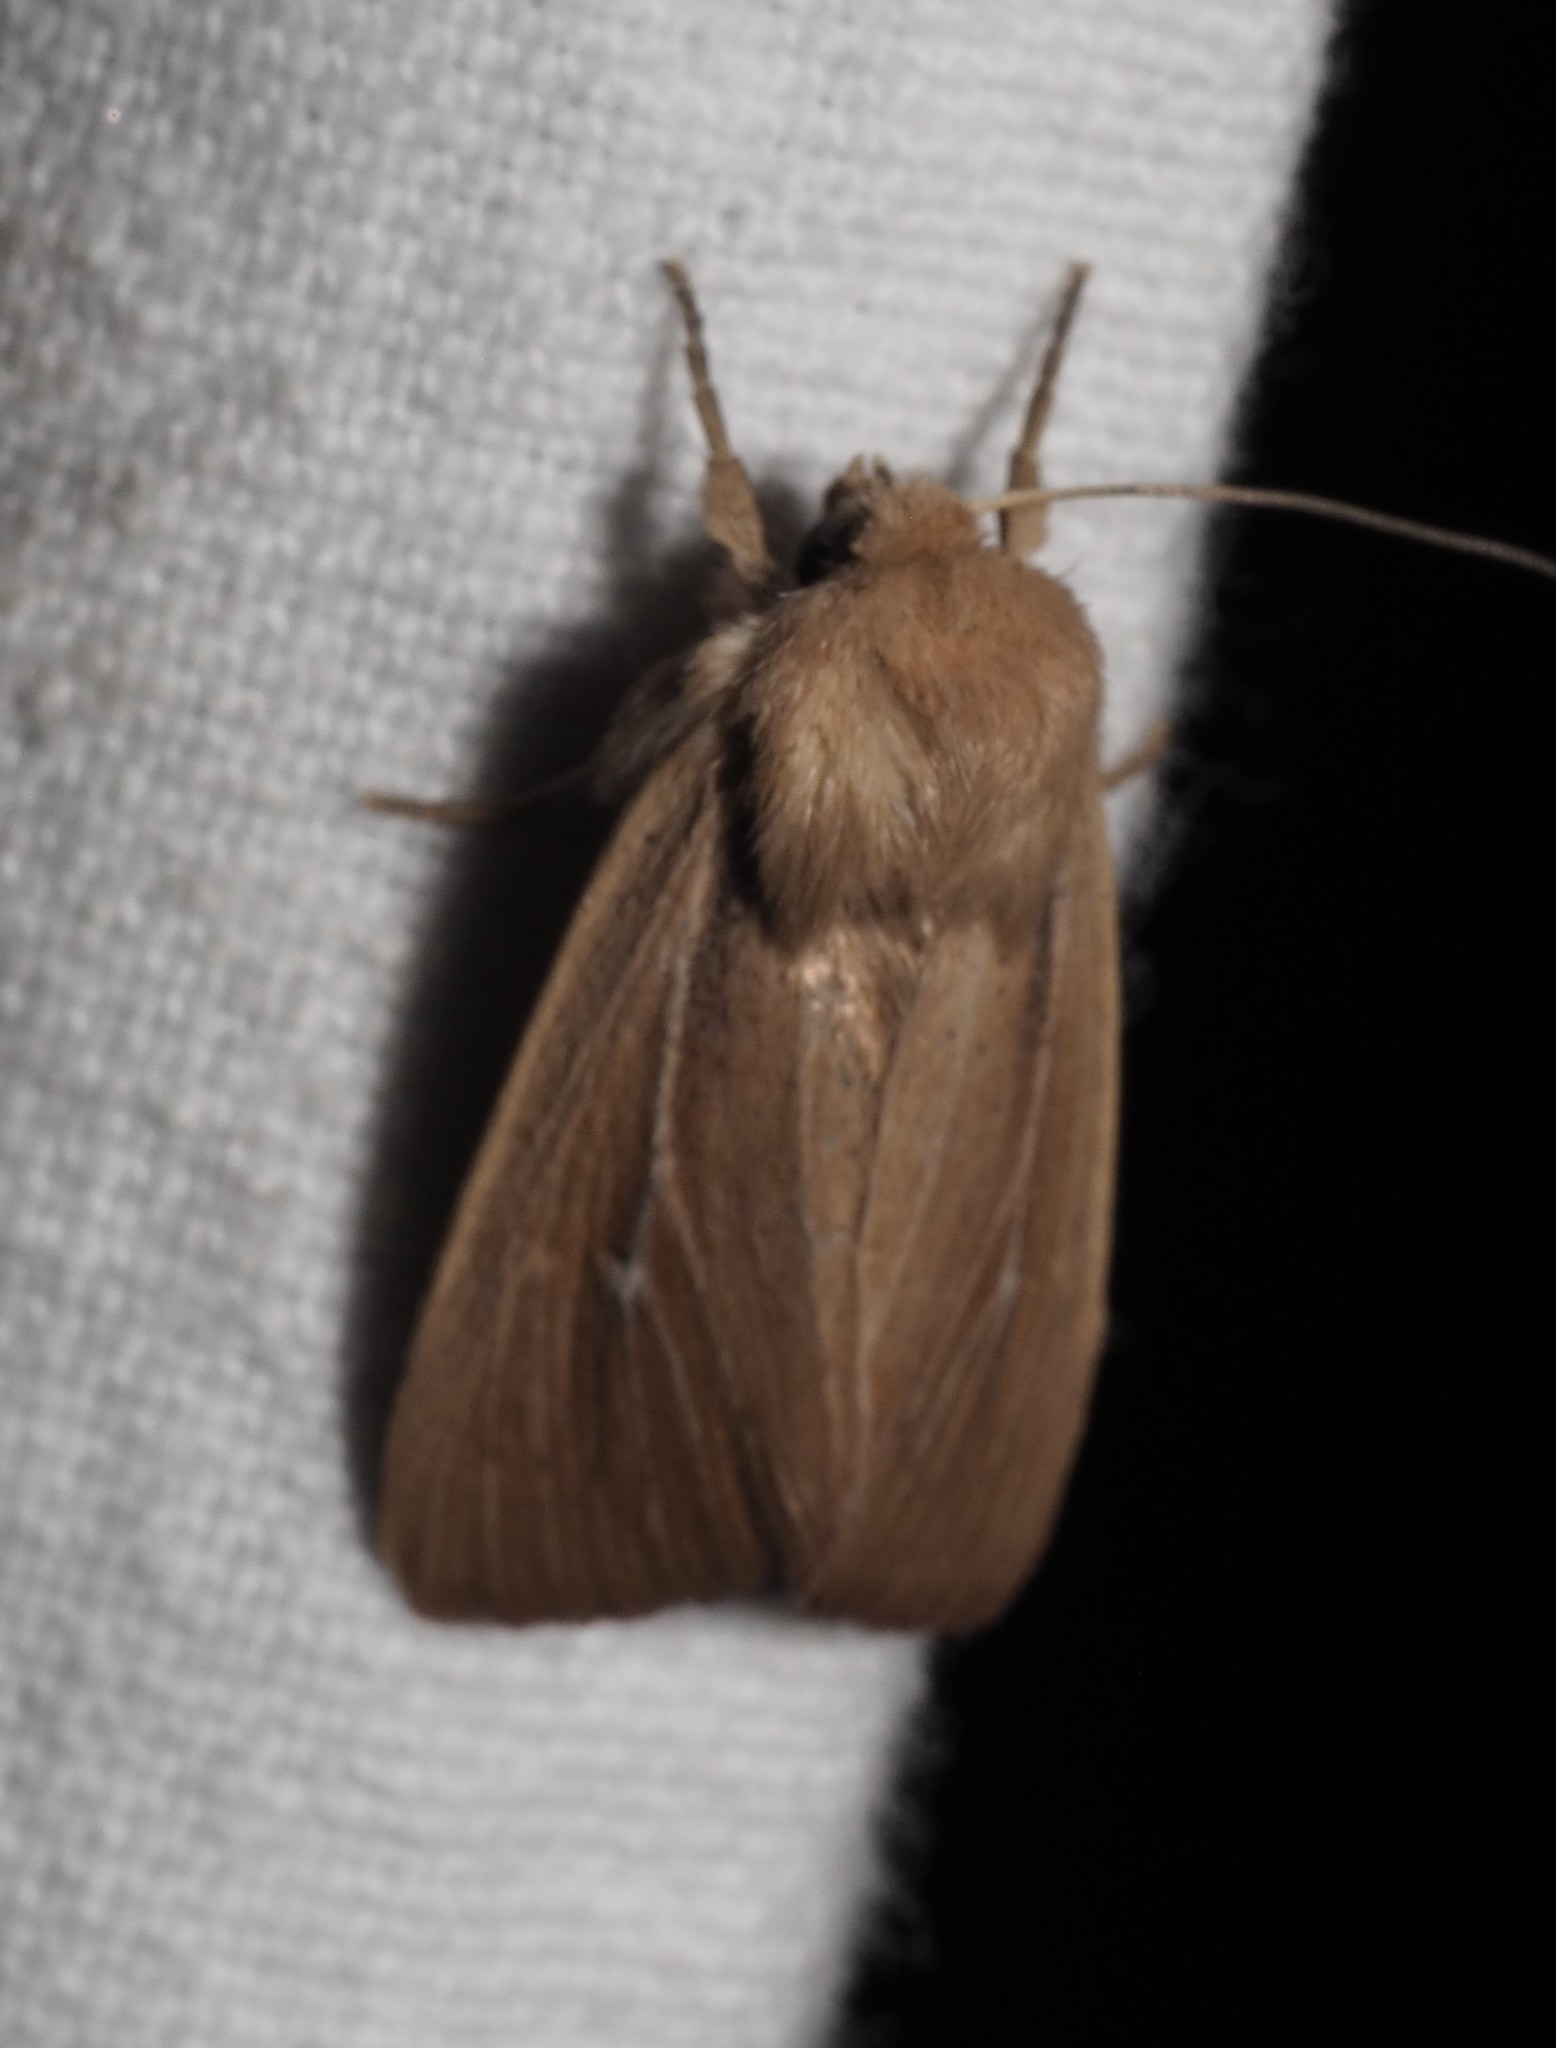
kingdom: Animalia
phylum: Arthropoda
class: Insecta
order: Lepidoptera
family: Noctuidae
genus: Mythimna
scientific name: Mythimna sicula
